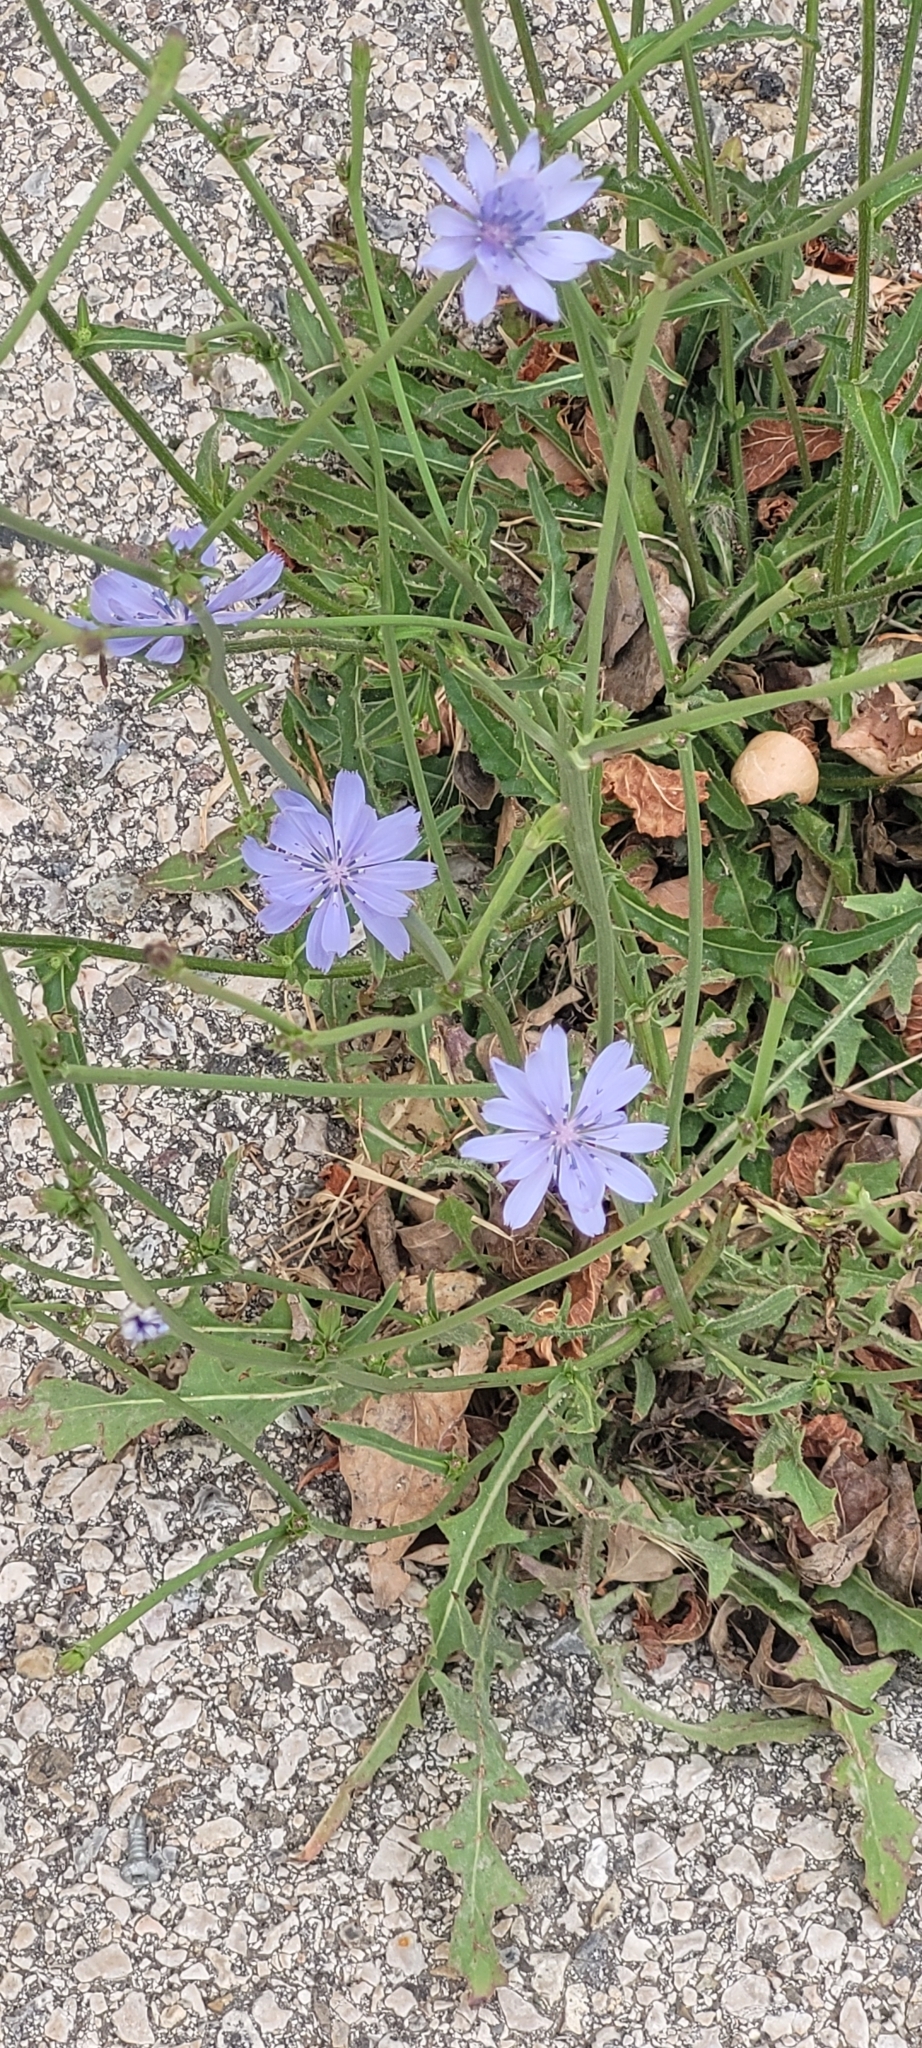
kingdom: Plantae
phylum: Tracheophyta
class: Magnoliopsida
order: Asterales
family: Asteraceae
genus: Cichorium
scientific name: Cichorium intybus
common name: Chicory
